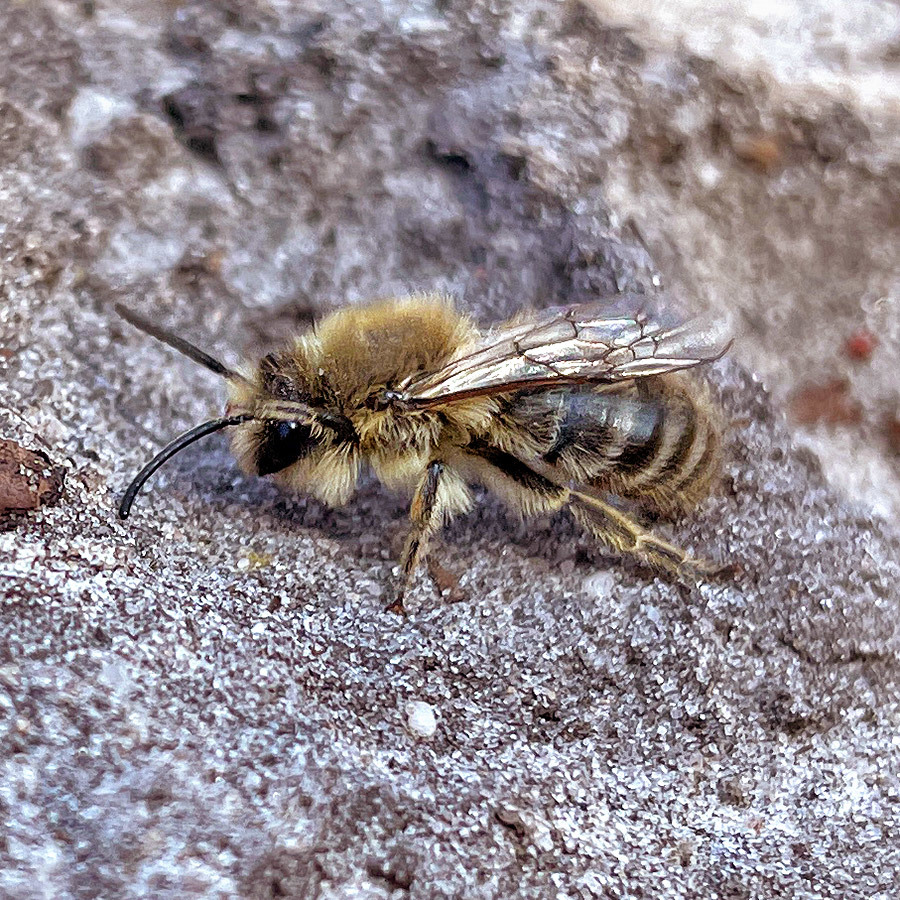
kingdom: Animalia
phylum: Arthropoda
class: Insecta
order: Hymenoptera
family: Colletidae
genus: Colletes
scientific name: Colletes cunicularius
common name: Early colletes
